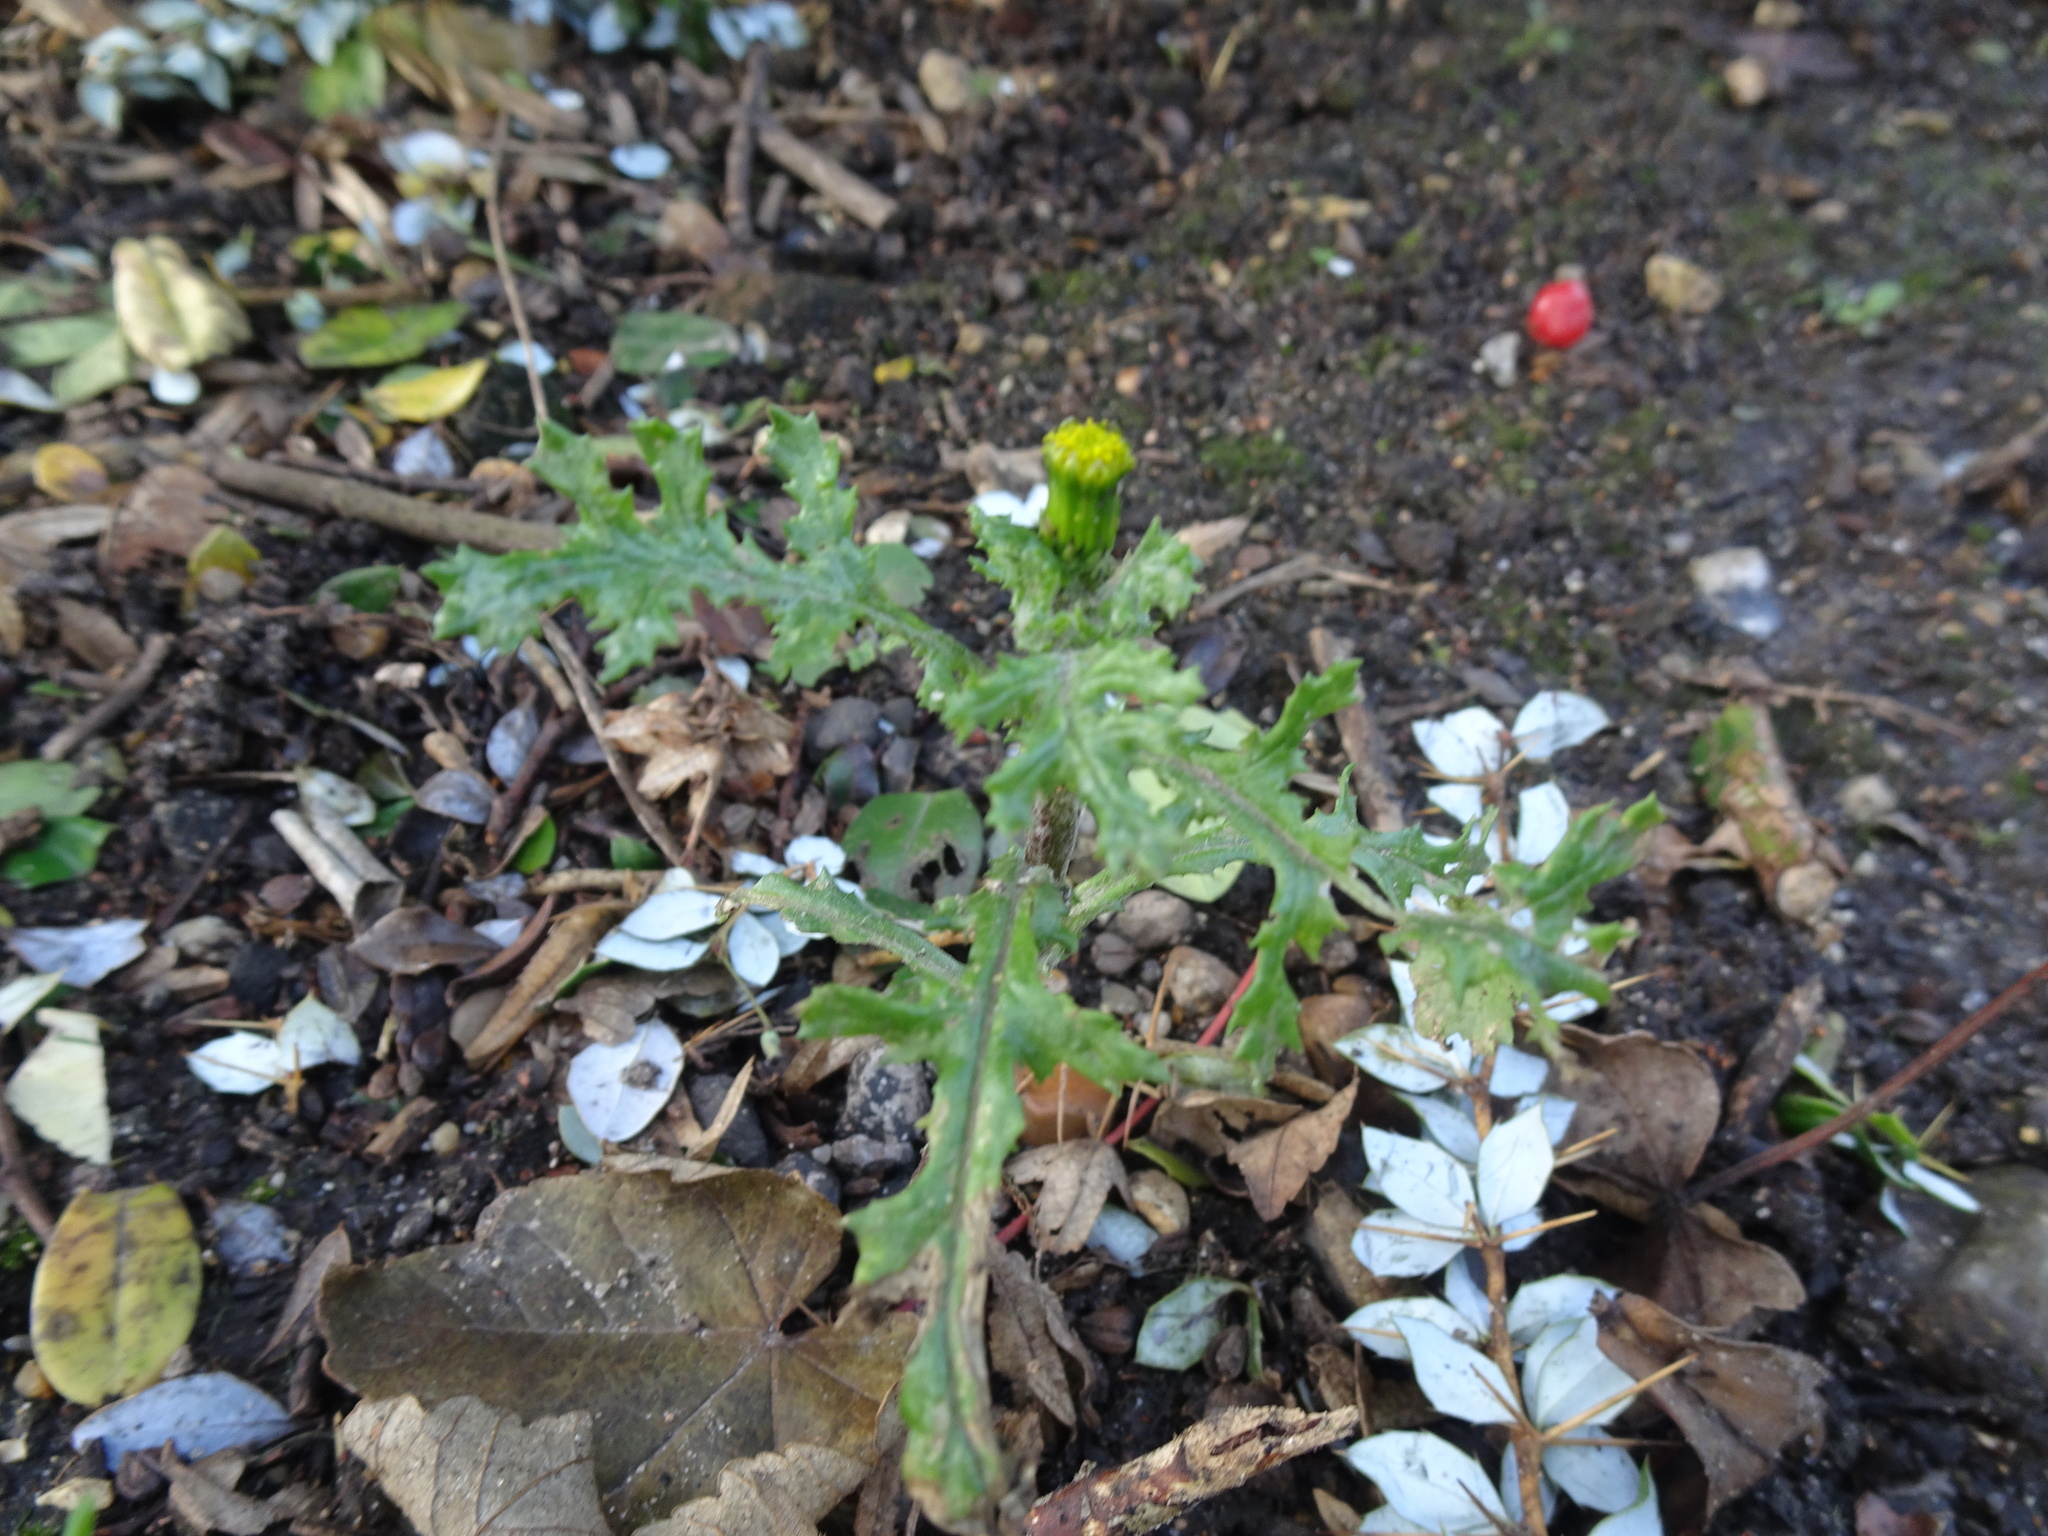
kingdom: Plantae
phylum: Tracheophyta
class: Magnoliopsida
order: Asterales
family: Asteraceae
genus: Senecio
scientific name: Senecio vulgaris
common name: Old-man-in-the-spring
